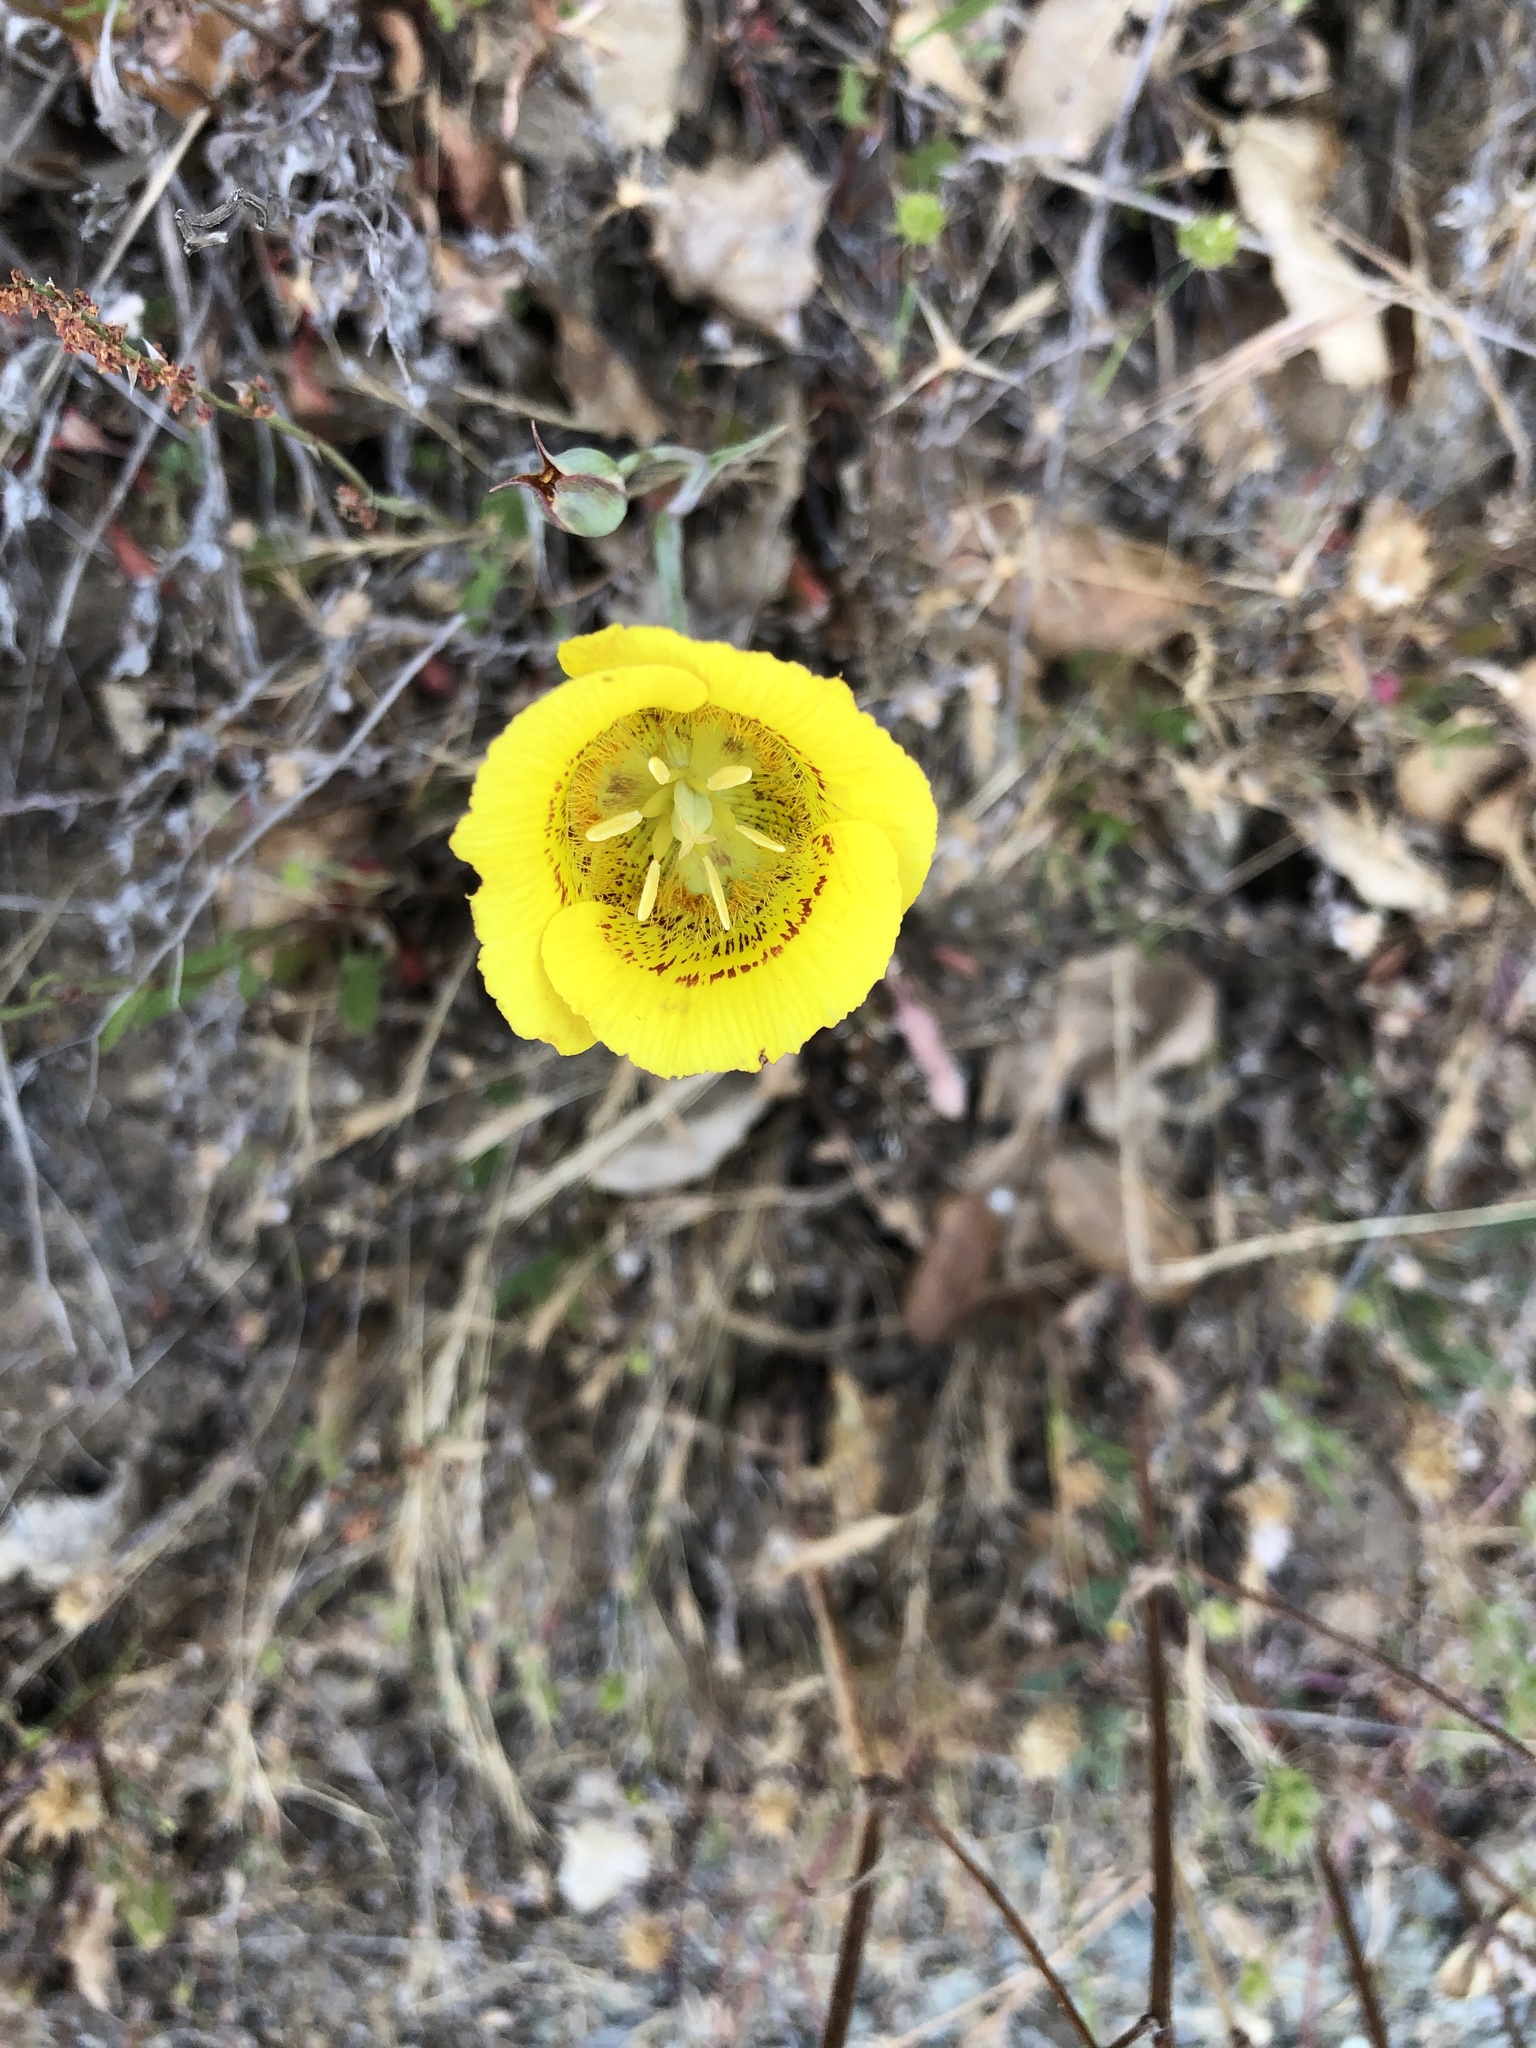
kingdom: Plantae
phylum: Tracheophyta
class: Liliopsida
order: Liliales
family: Liliaceae
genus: Calochortus
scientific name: Calochortus luteus
